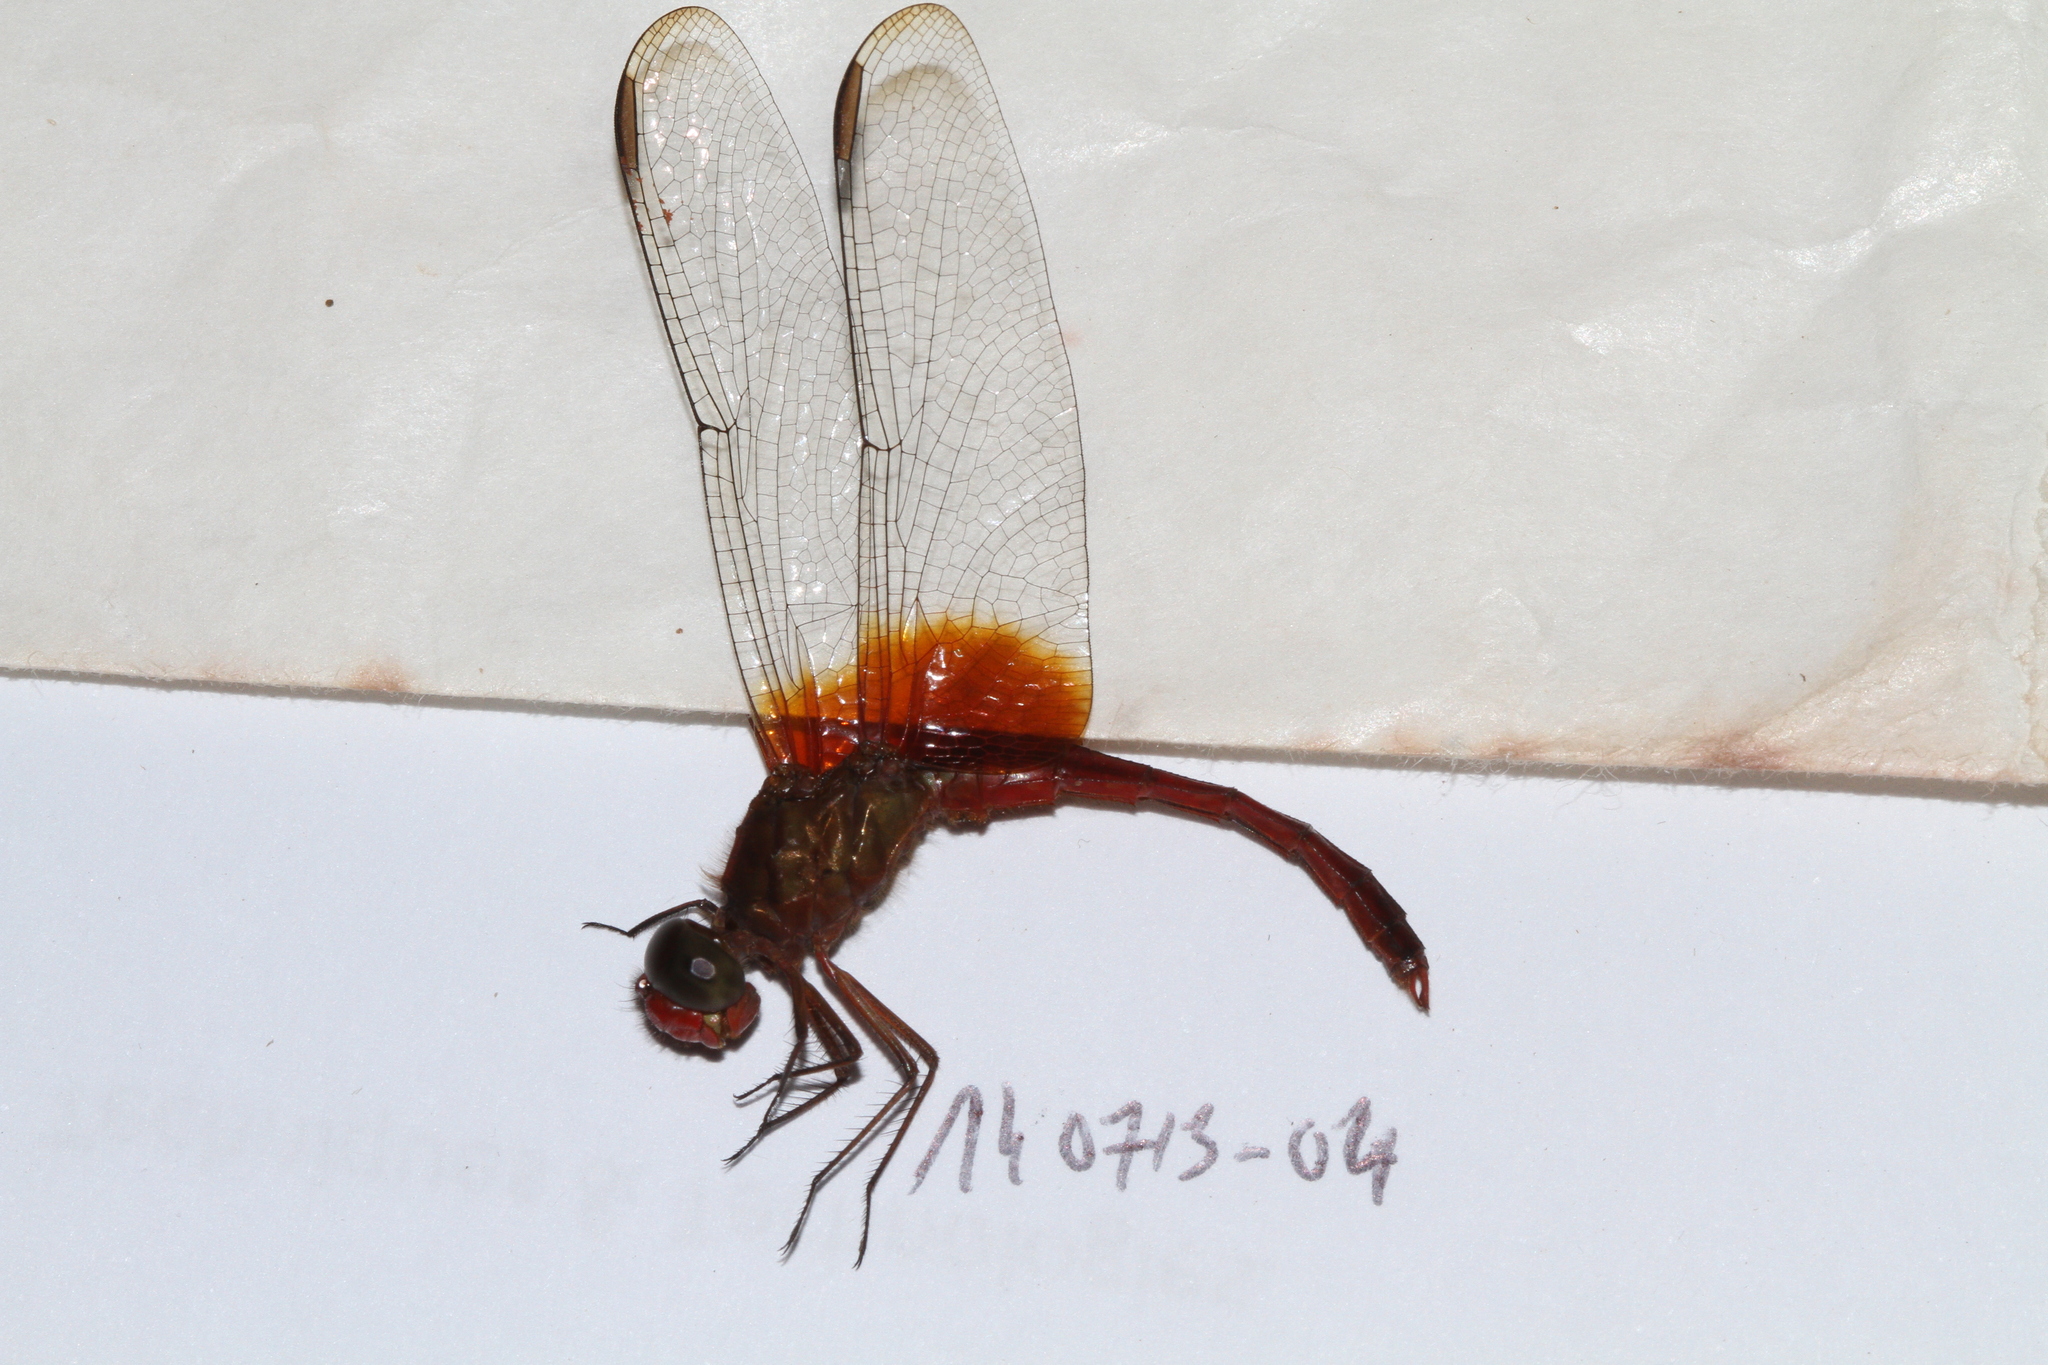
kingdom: Animalia
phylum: Arthropoda
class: Insecta
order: Odonata
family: Libellulidae
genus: Erythrodiplax
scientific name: Erythrodiplax famula
